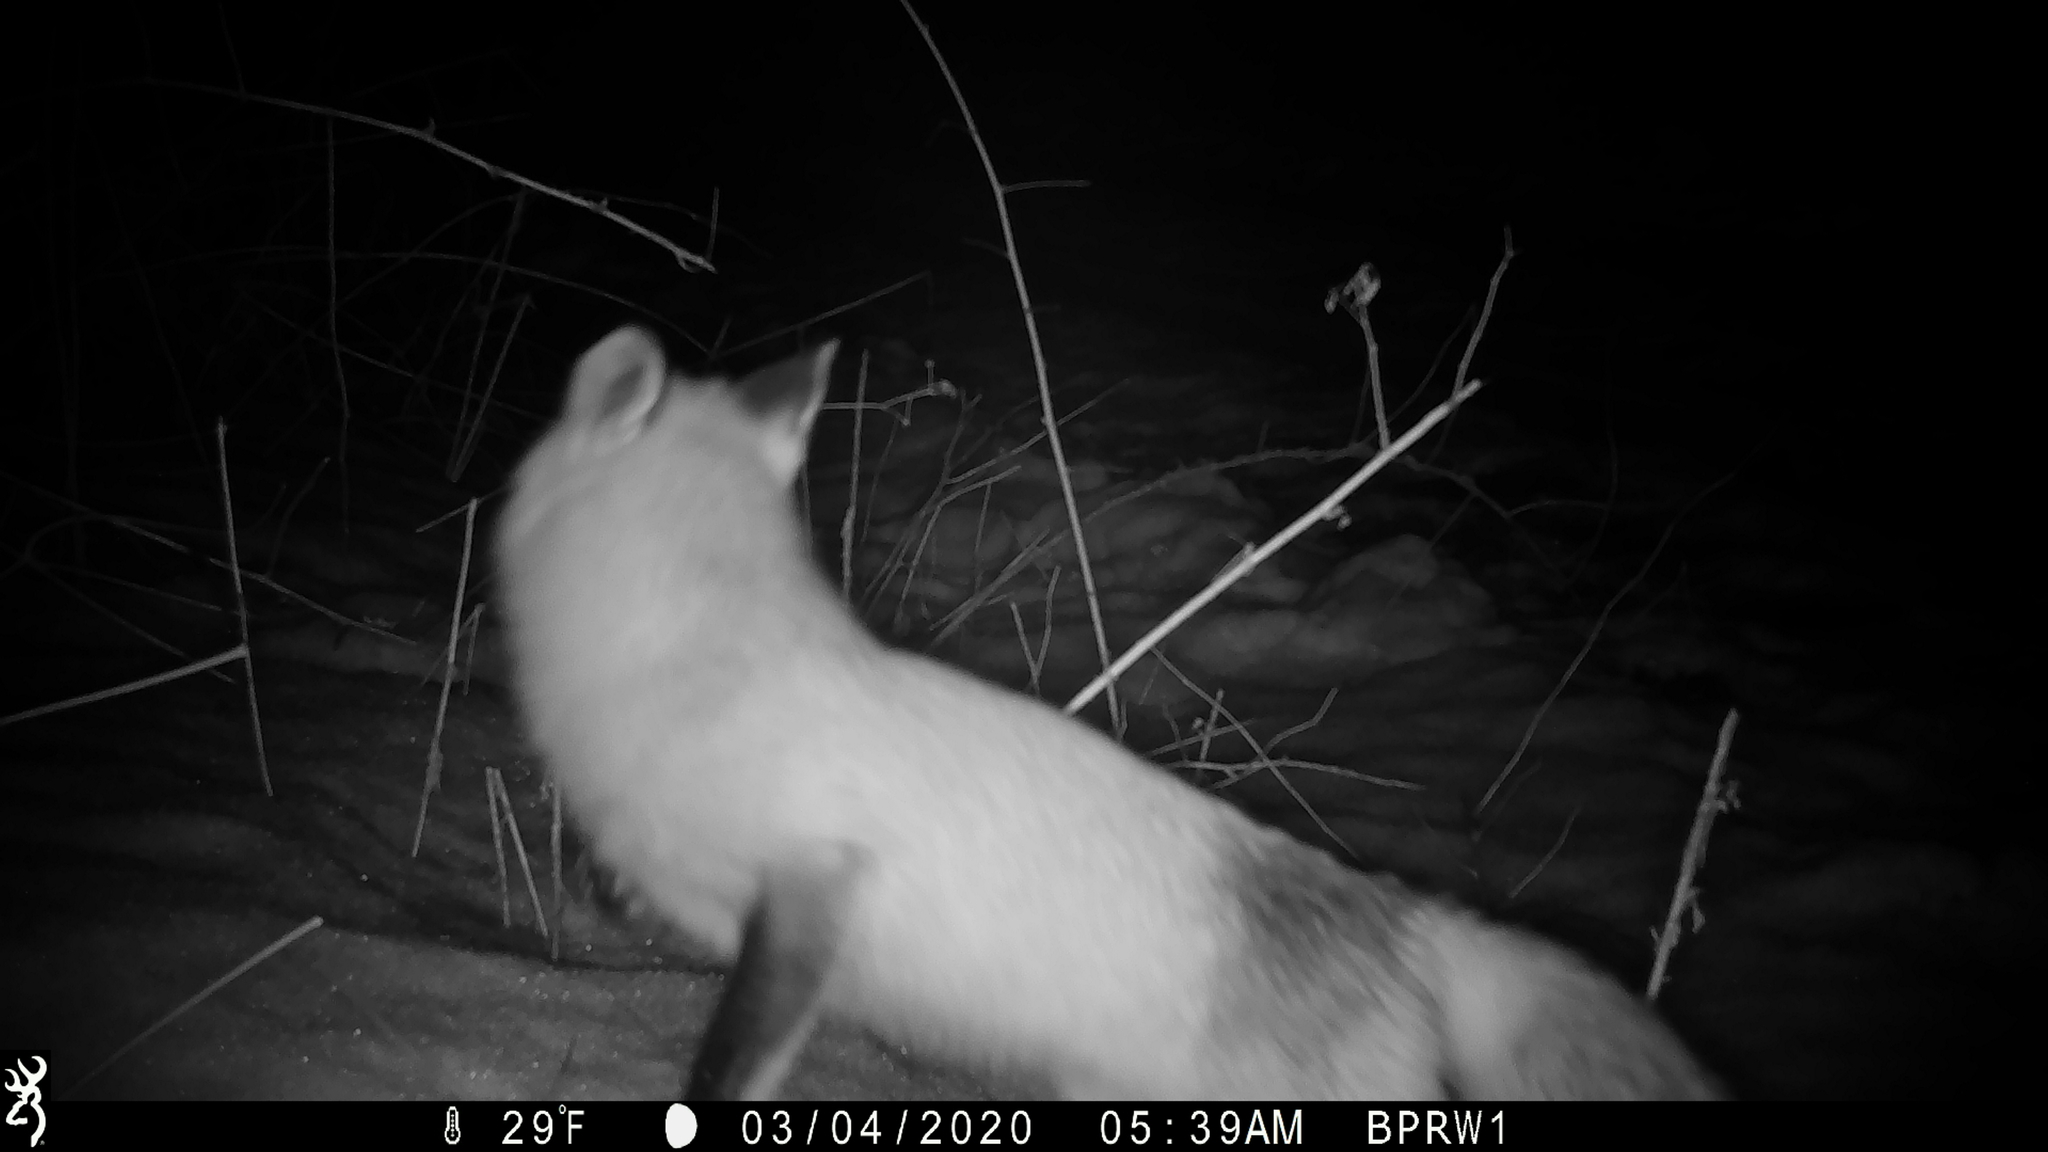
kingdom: Animalia
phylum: Chordata
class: Mammalia
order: Carnivora
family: Canidae
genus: Vulpes
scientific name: Vulpes vulpes
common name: Red fox
